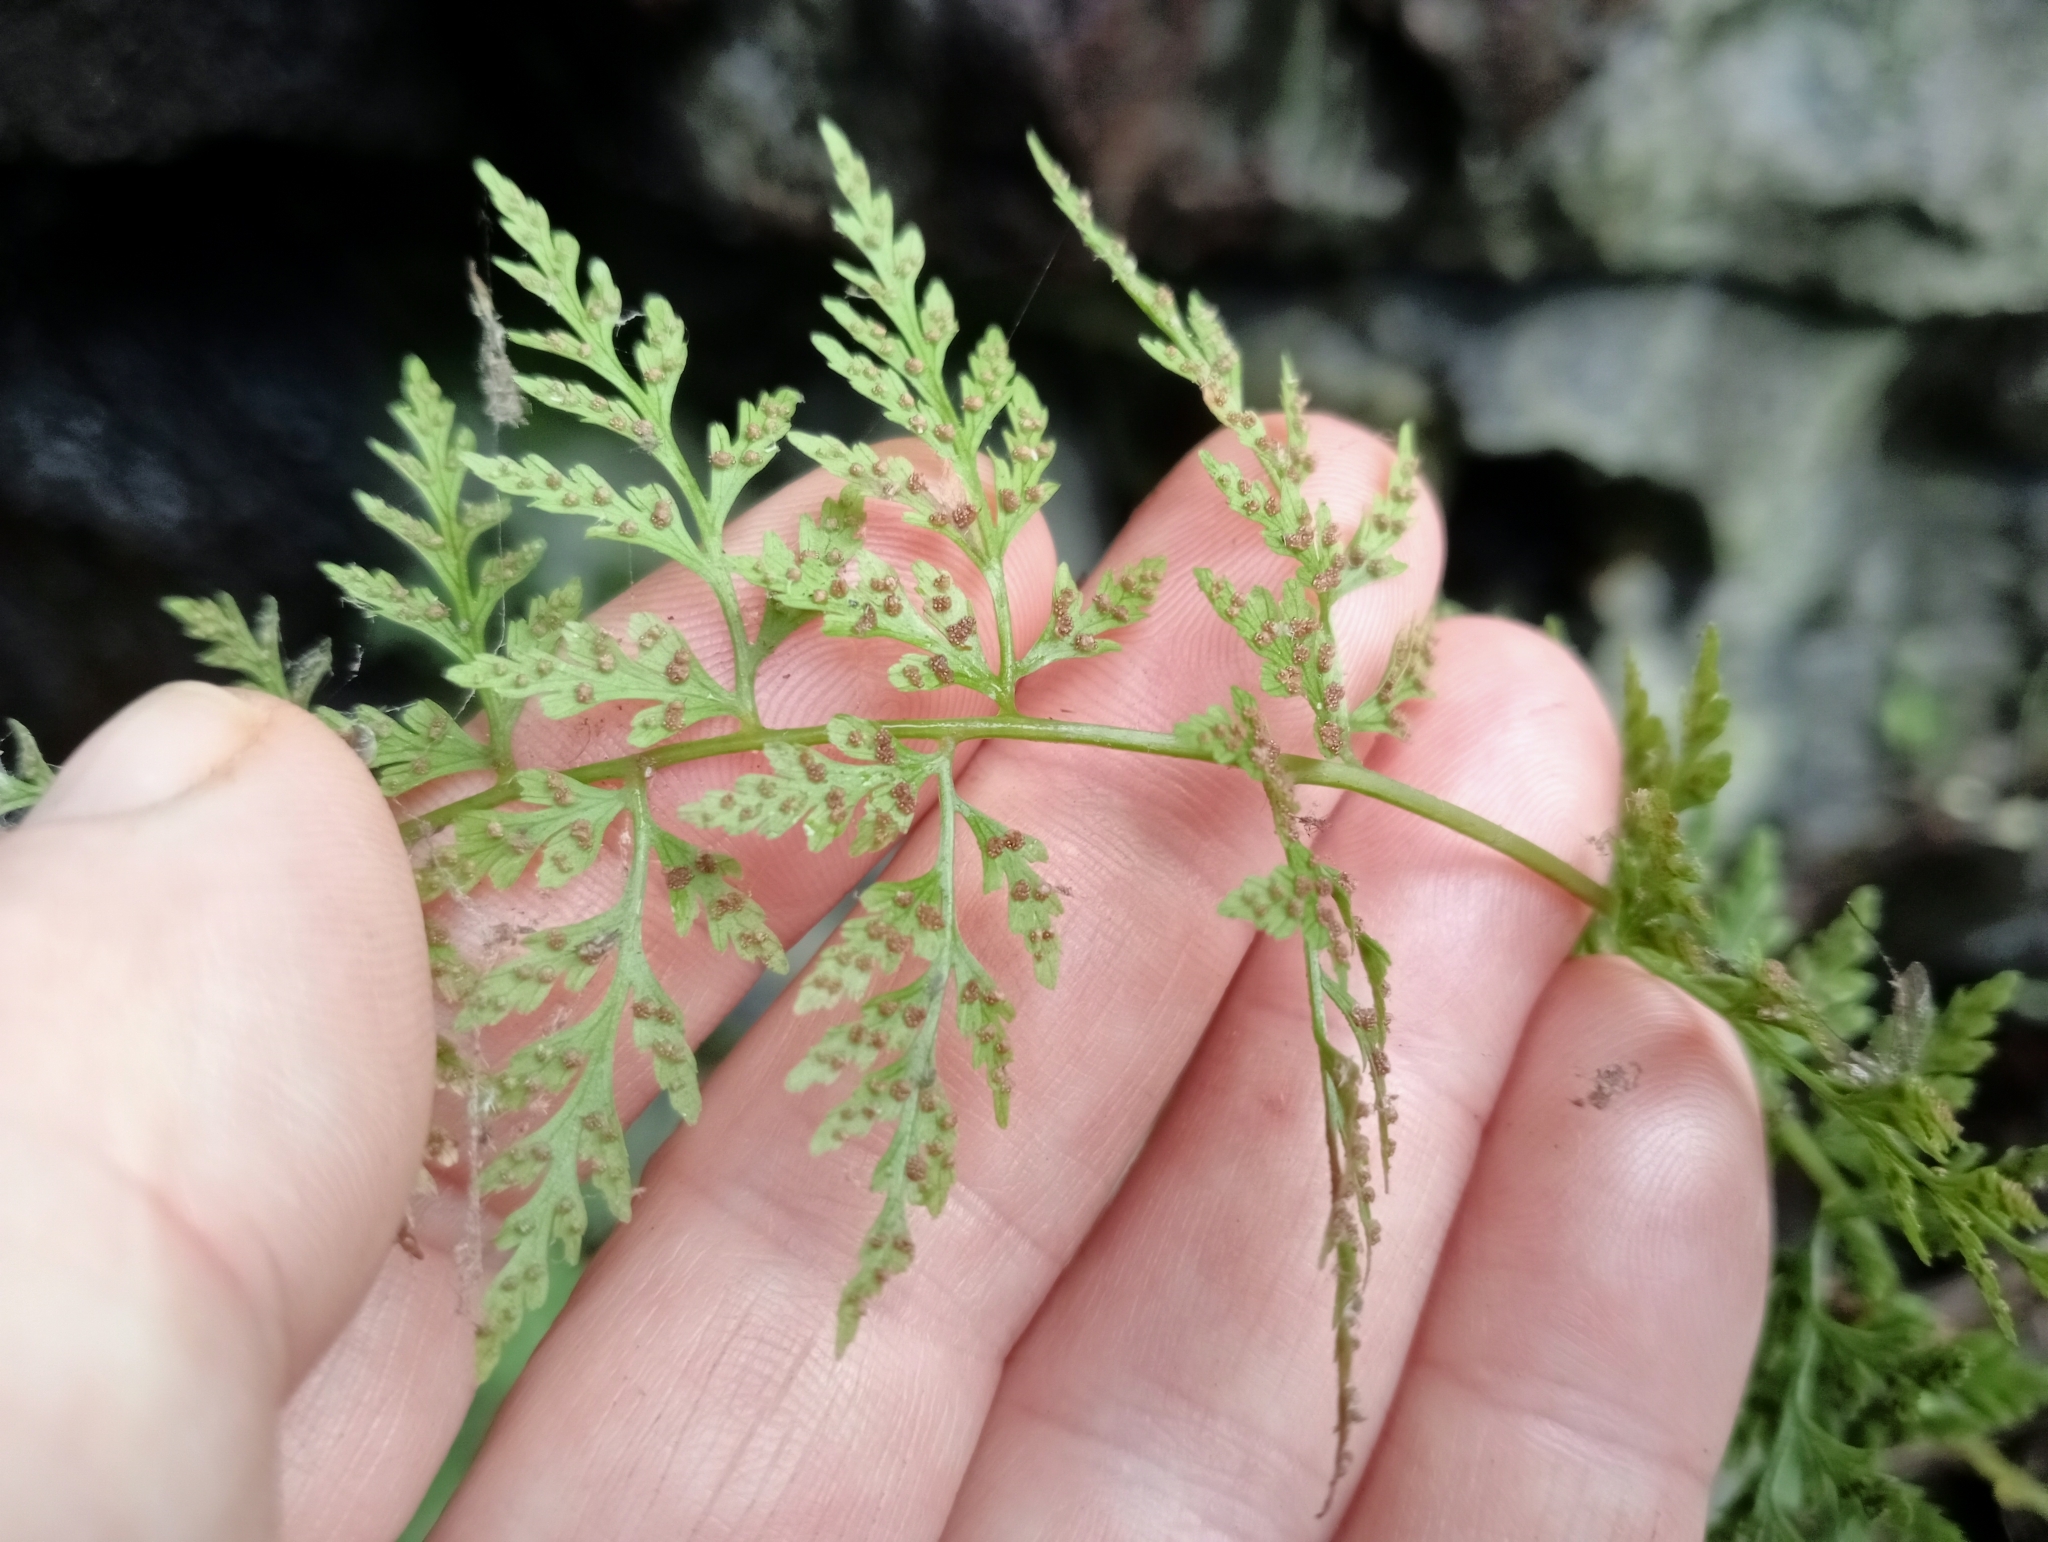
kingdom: Plantae
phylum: Tracheophyta
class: Polypodiopsida
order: Polypodiales
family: Cystopteridaceae
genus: Cystopteris
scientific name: Cystopteris fragilis
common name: Brittle bladder fern
